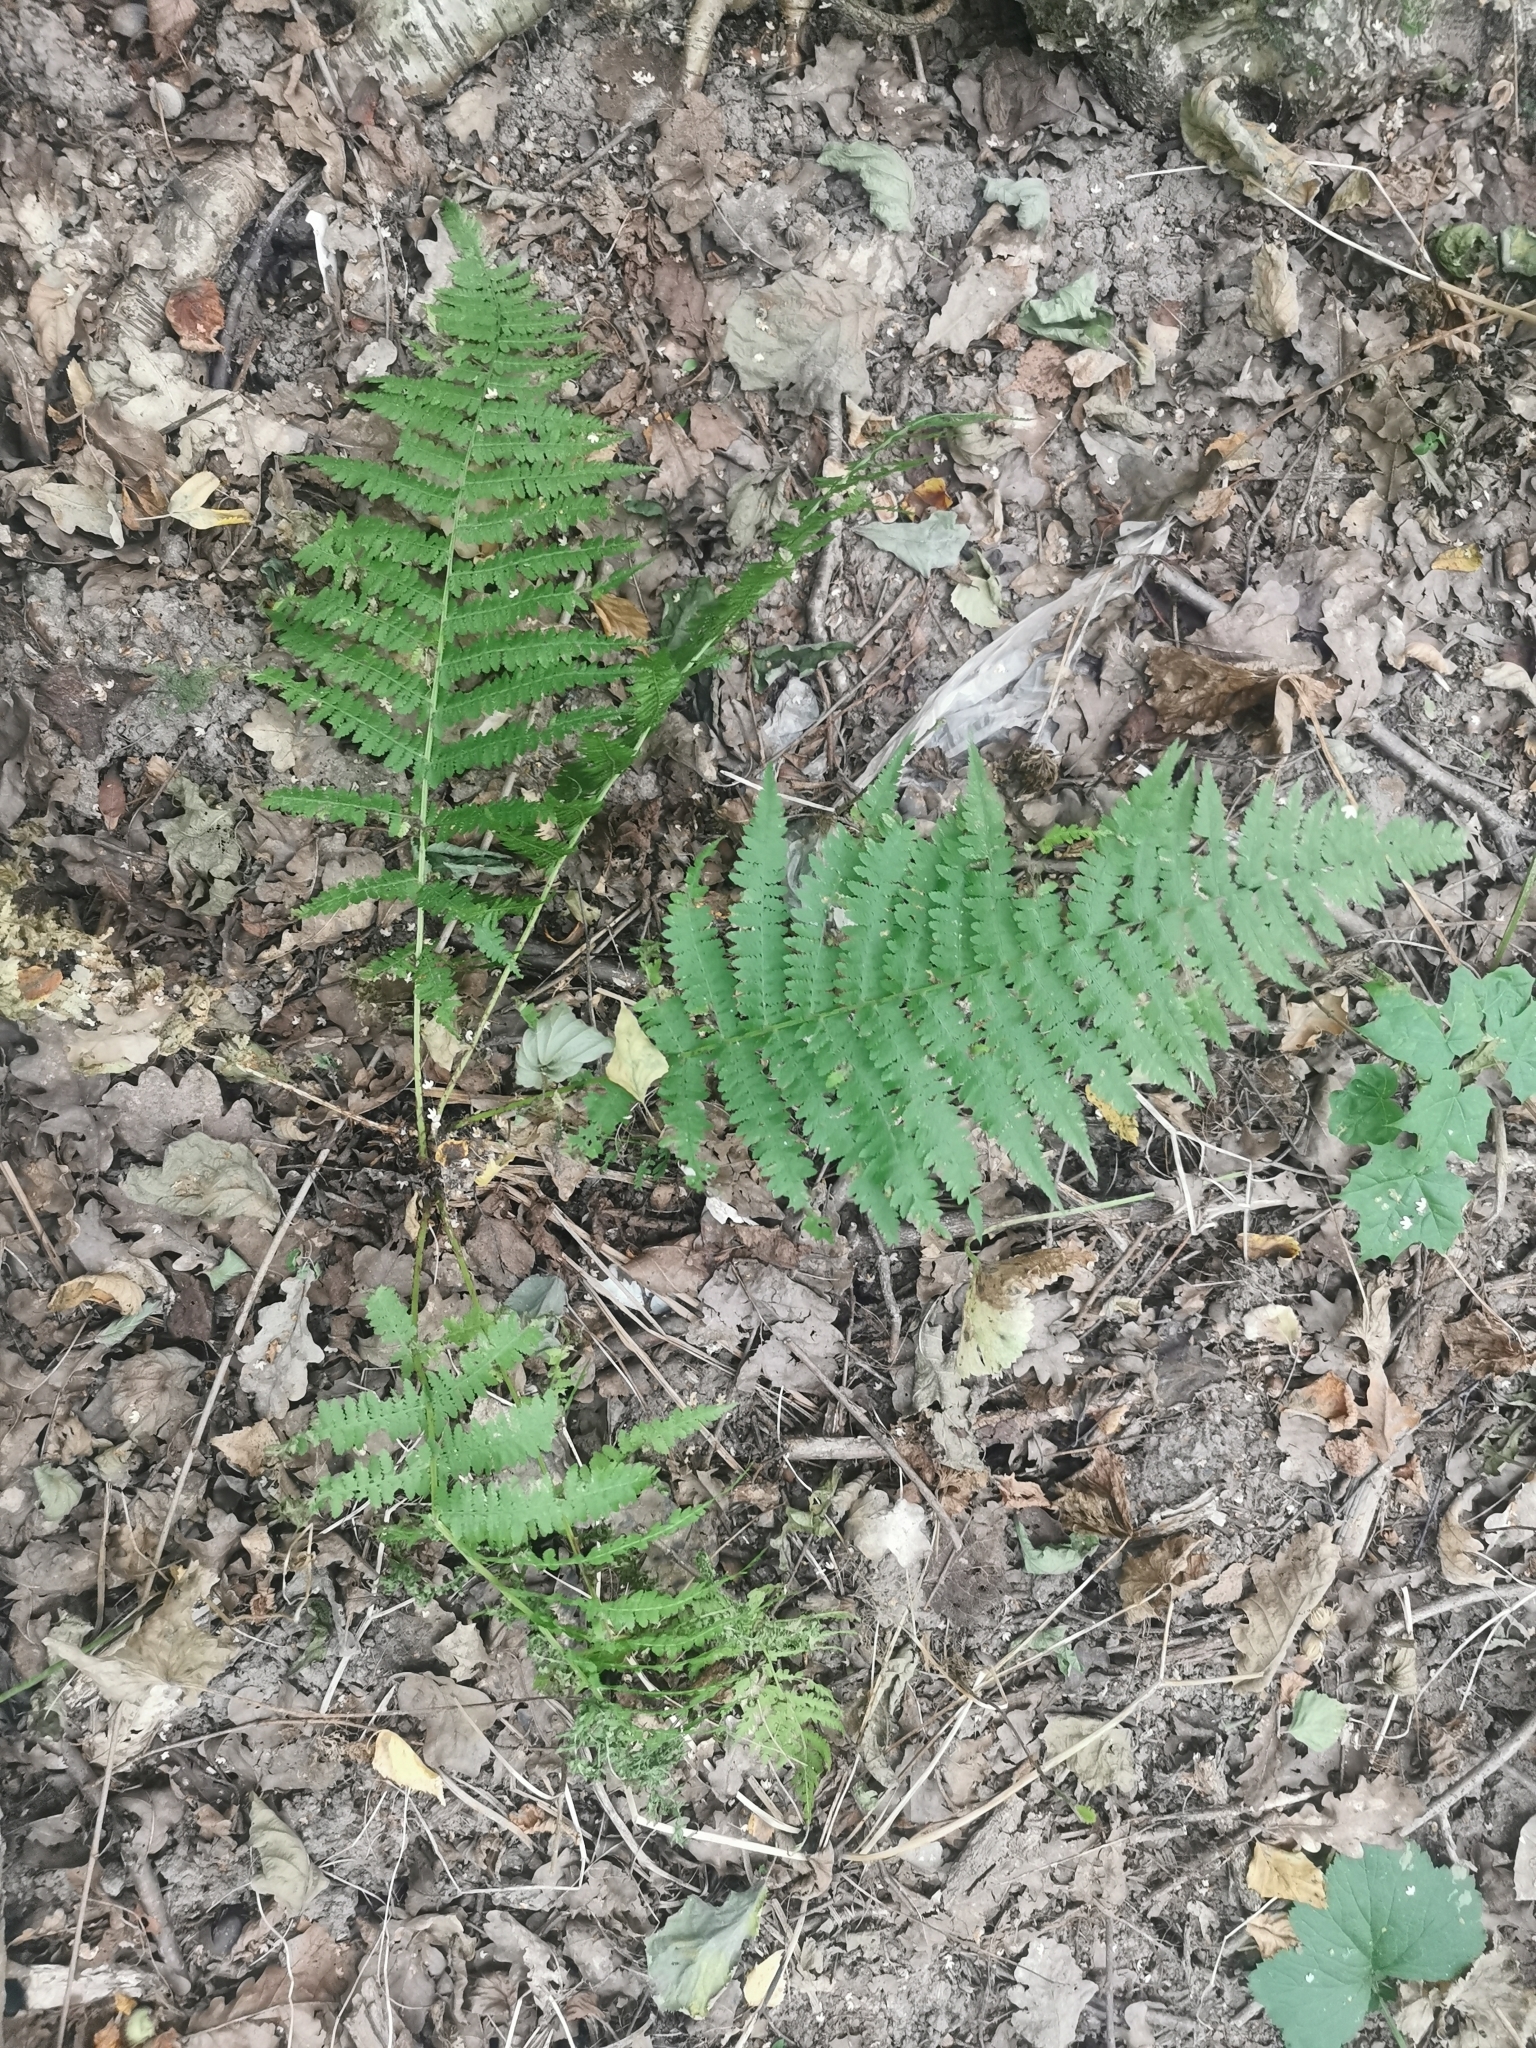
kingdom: Plantae
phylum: Tracheophyta
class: Polypodiopsida
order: Polypodiales
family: Athyriaceae
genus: Athyrium
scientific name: Athyrium filix-femina
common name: Lady fern
